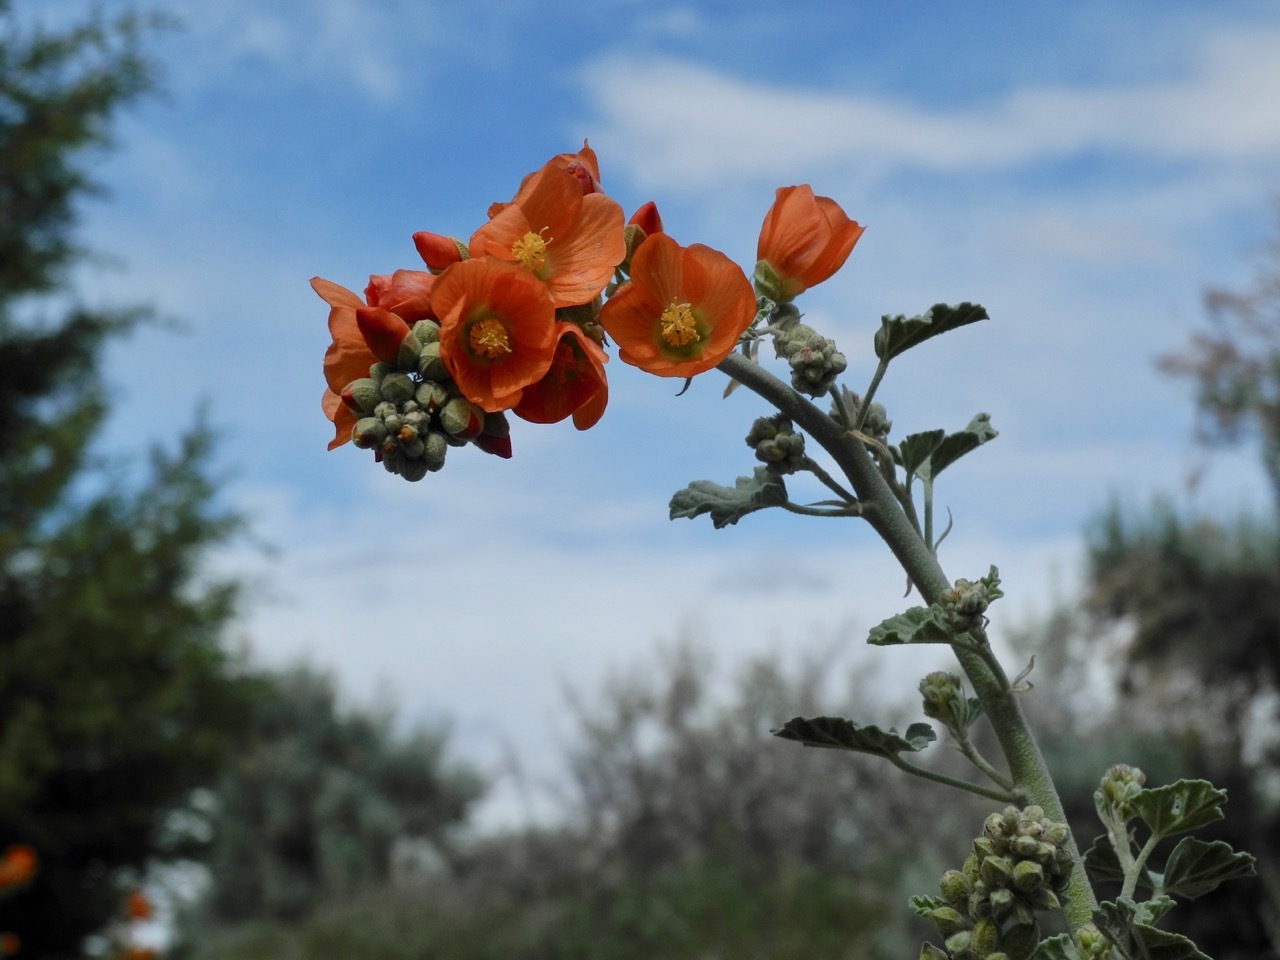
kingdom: Plantae
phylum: Tracheophyta
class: Magnoliopsida
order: Malvales
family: Malvaceae
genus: Sphaeralcea
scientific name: Sphaeralcea parvifolia
